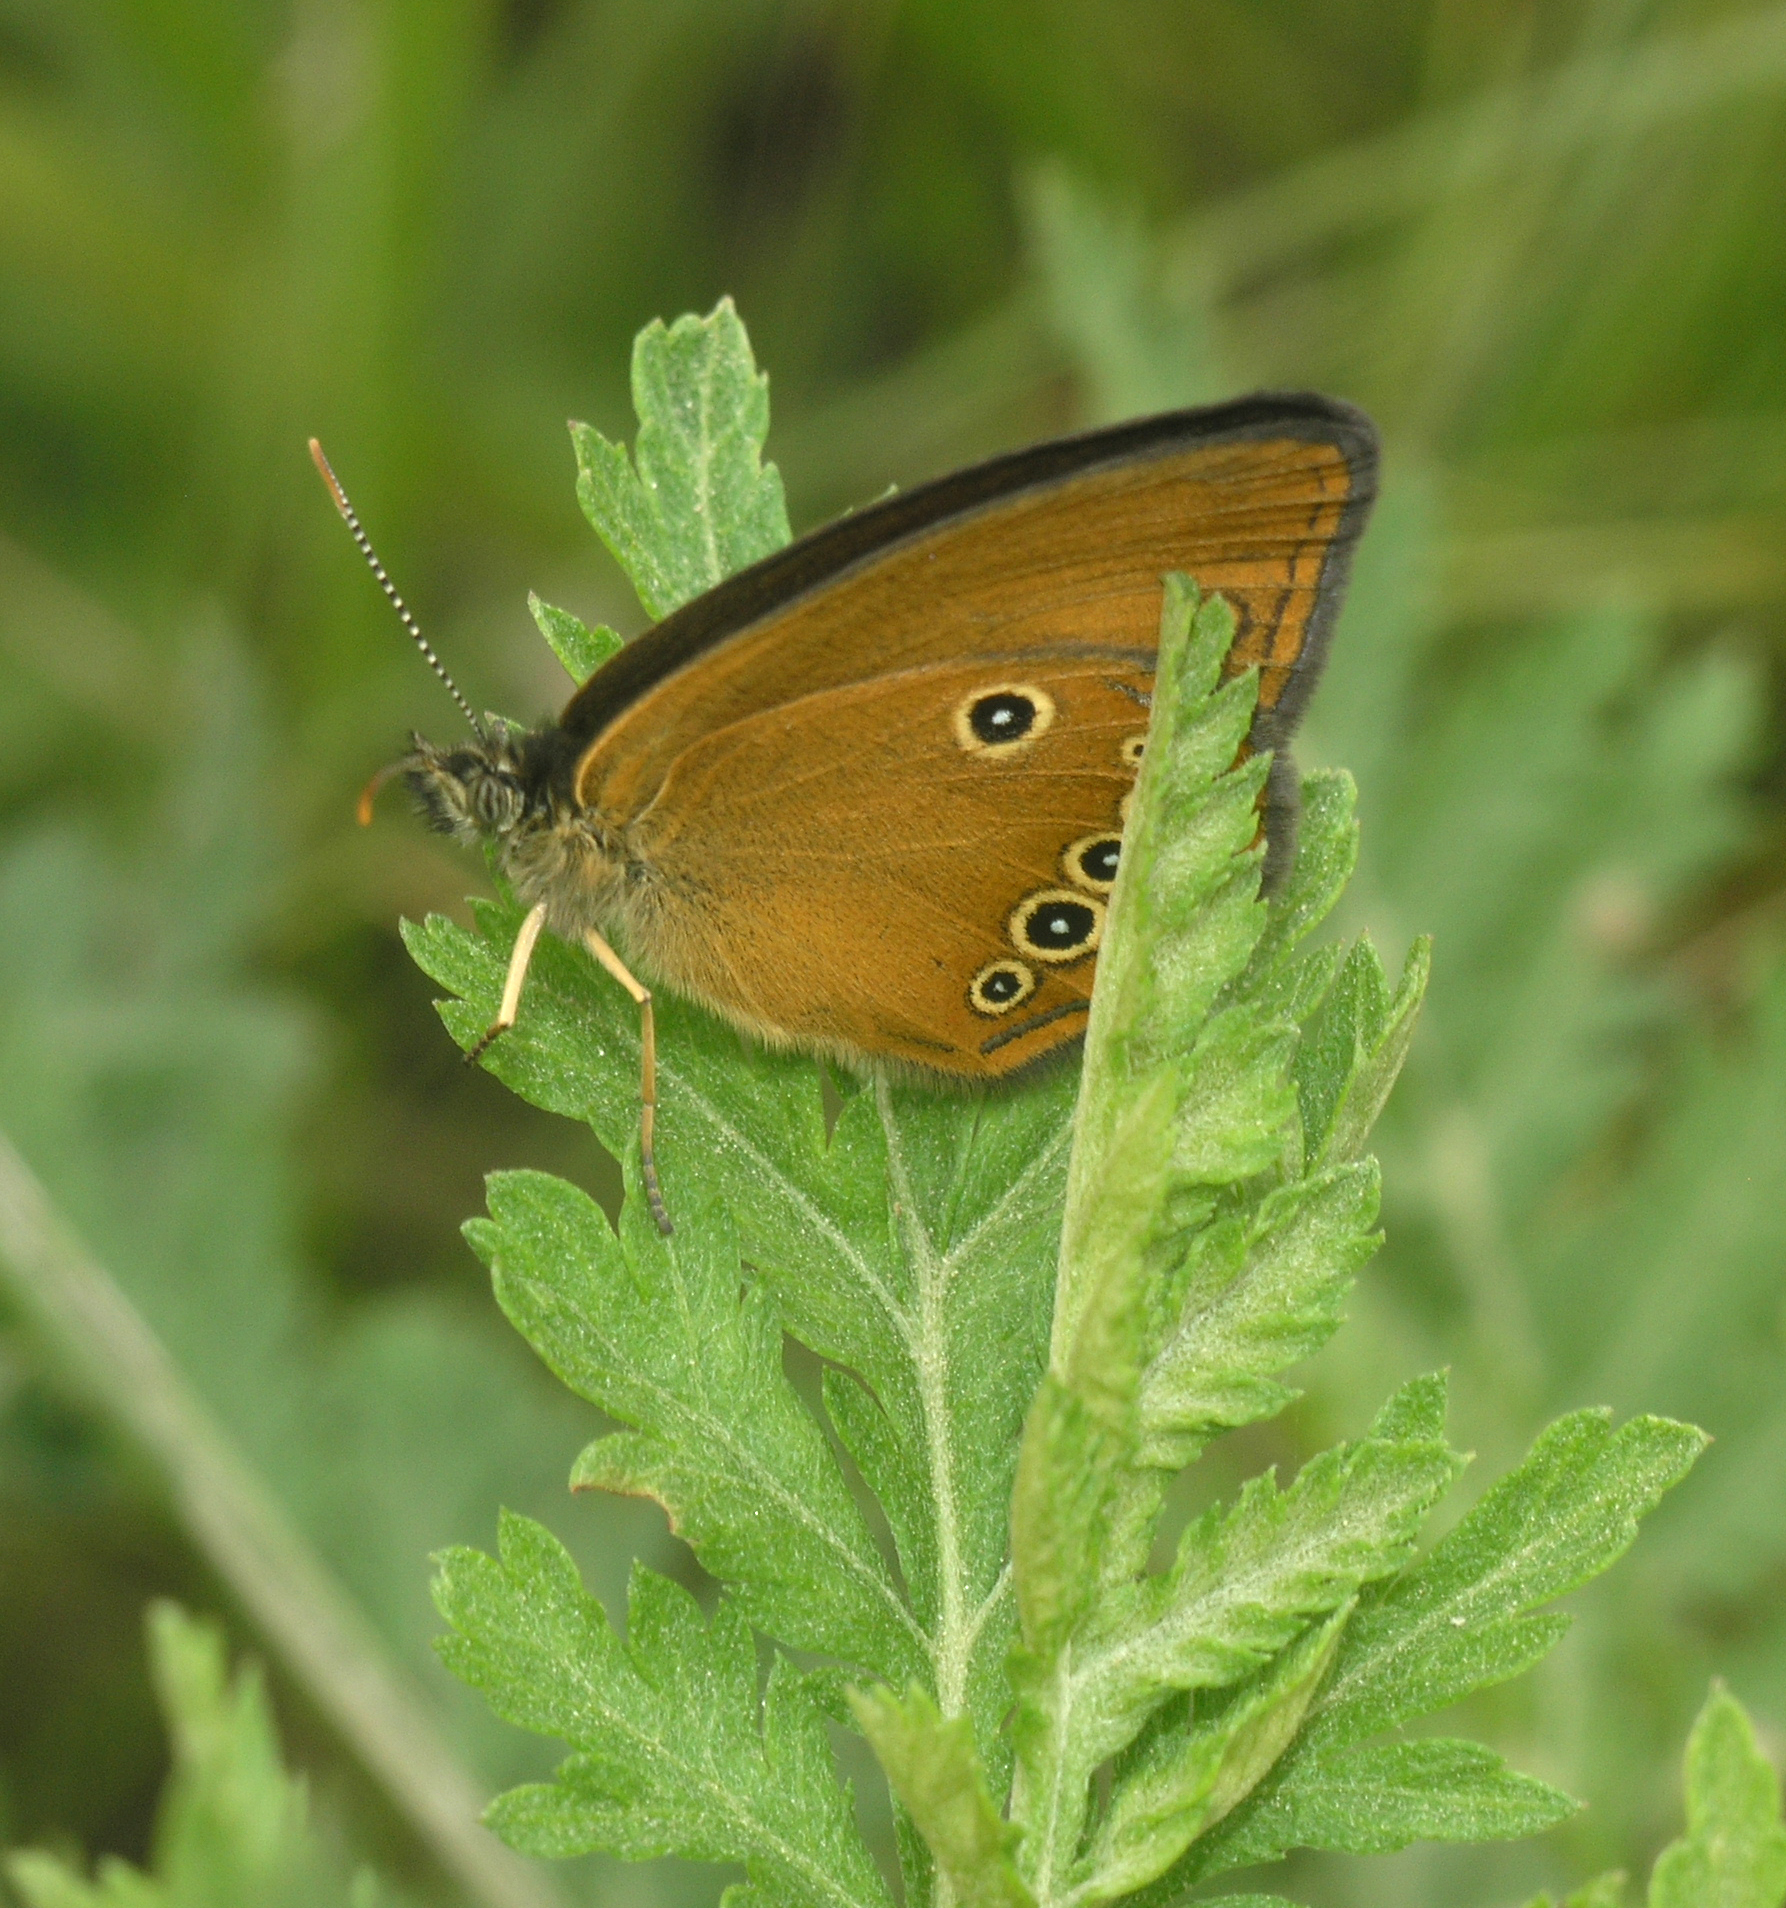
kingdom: Animalia
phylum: Arthropoda
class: Insecta
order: Lepidoptera
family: Nymphalidae
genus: Coenonympha
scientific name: Coenonympha oedippus
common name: False ringlet
